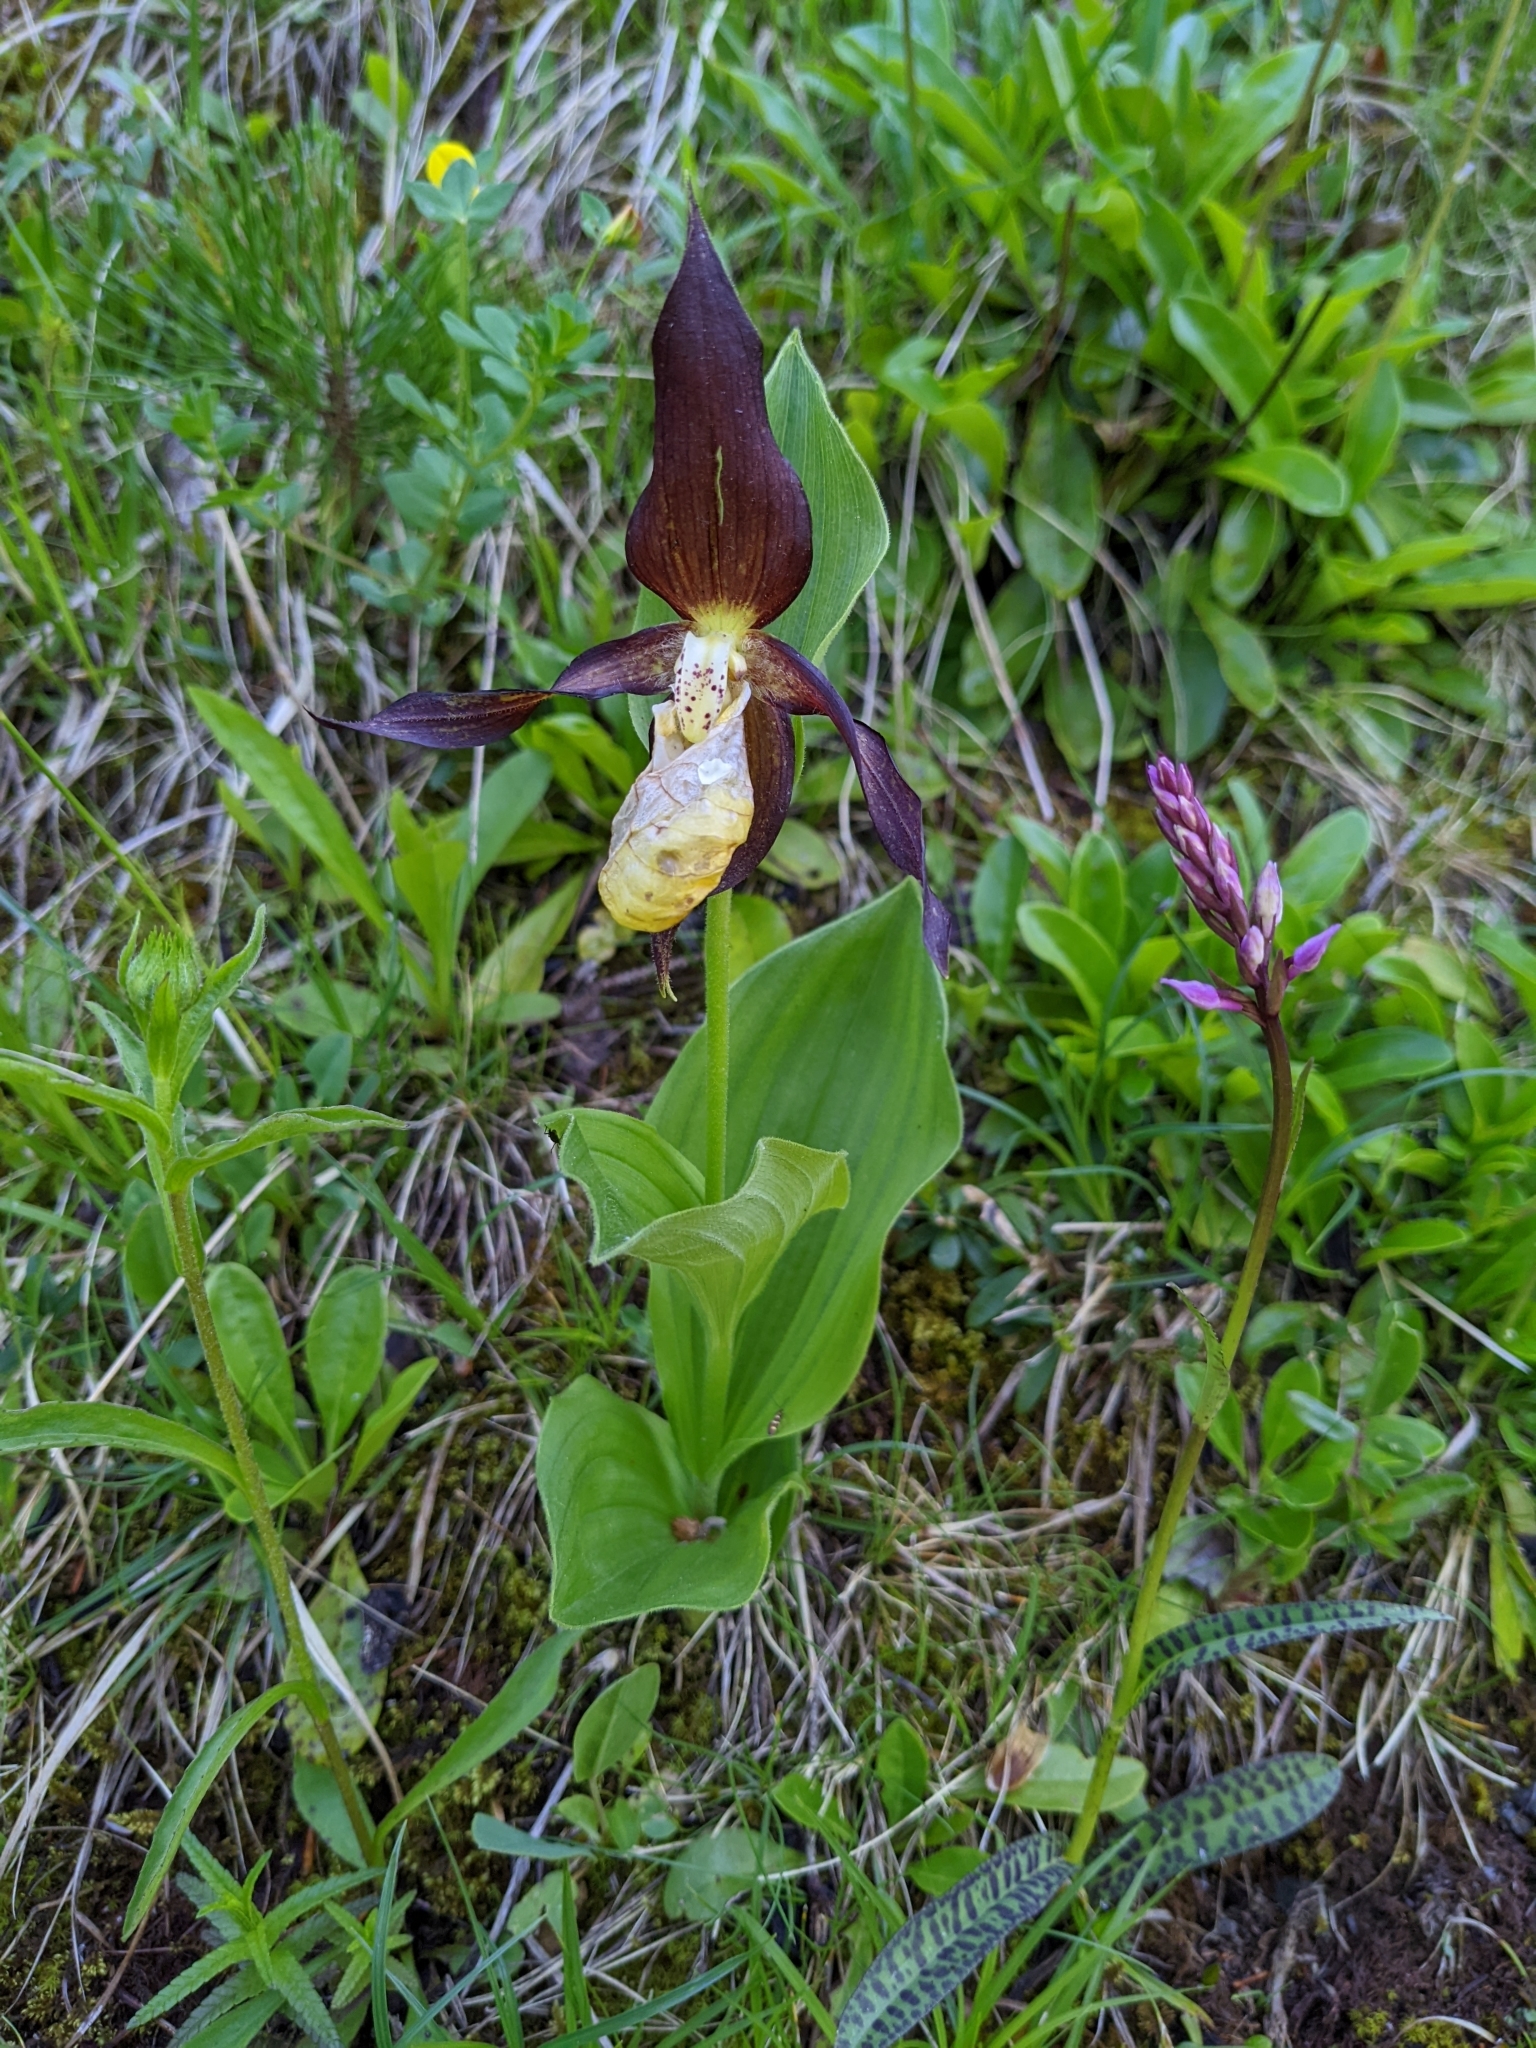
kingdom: Plantae
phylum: Tracheophyta
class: Liliopsida
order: Asparagales
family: Orchidaceae
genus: Cypripedium
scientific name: Cypripedium calceolus
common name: Lady's-slipper
